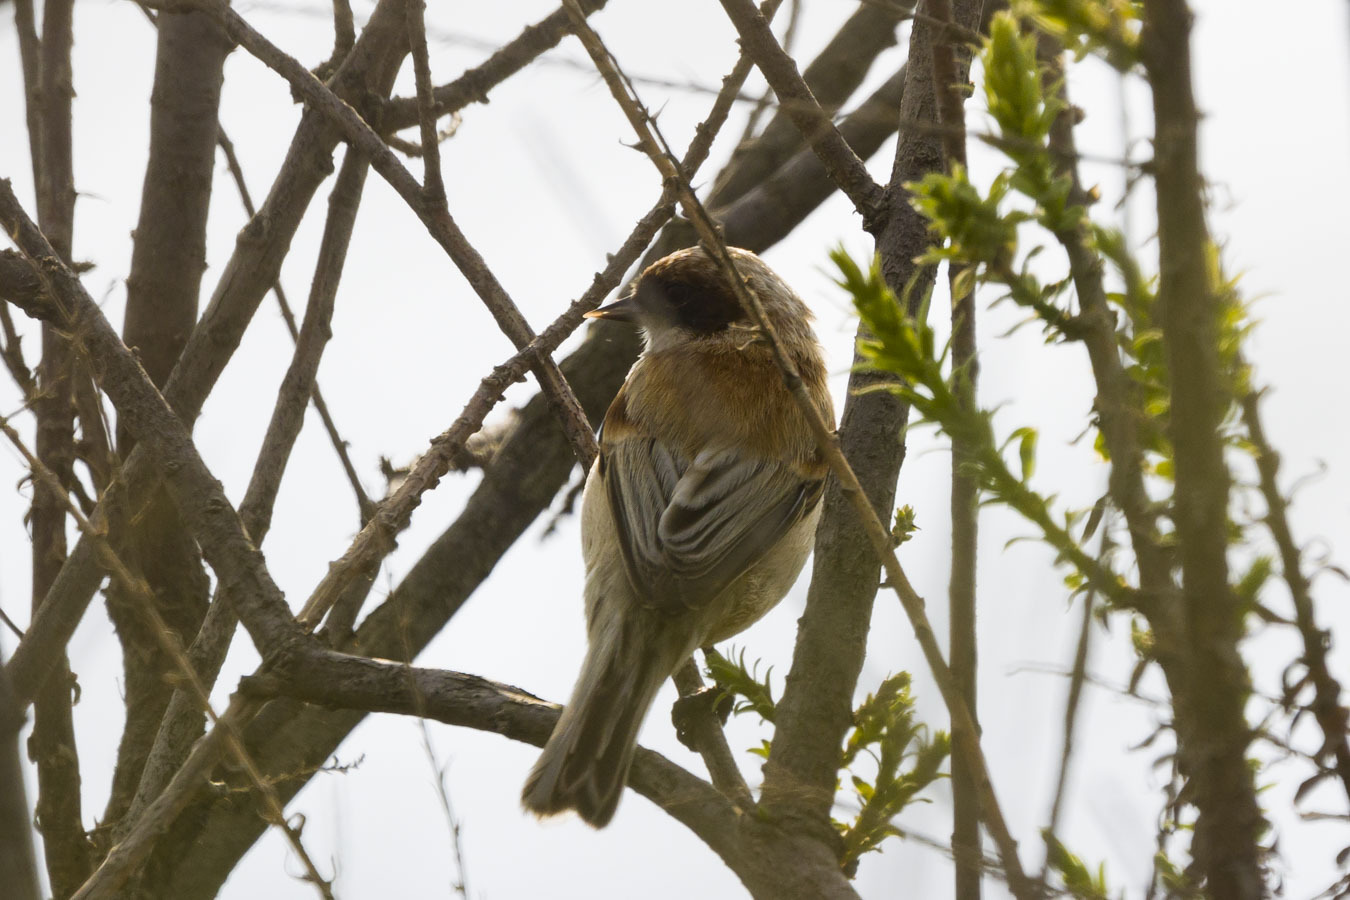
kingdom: Animalia
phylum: Chordata
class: Aves
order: Passeriformes
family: Remizidae
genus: Remiz
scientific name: Remiz pendulinus
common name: Eurasian penduline tit
